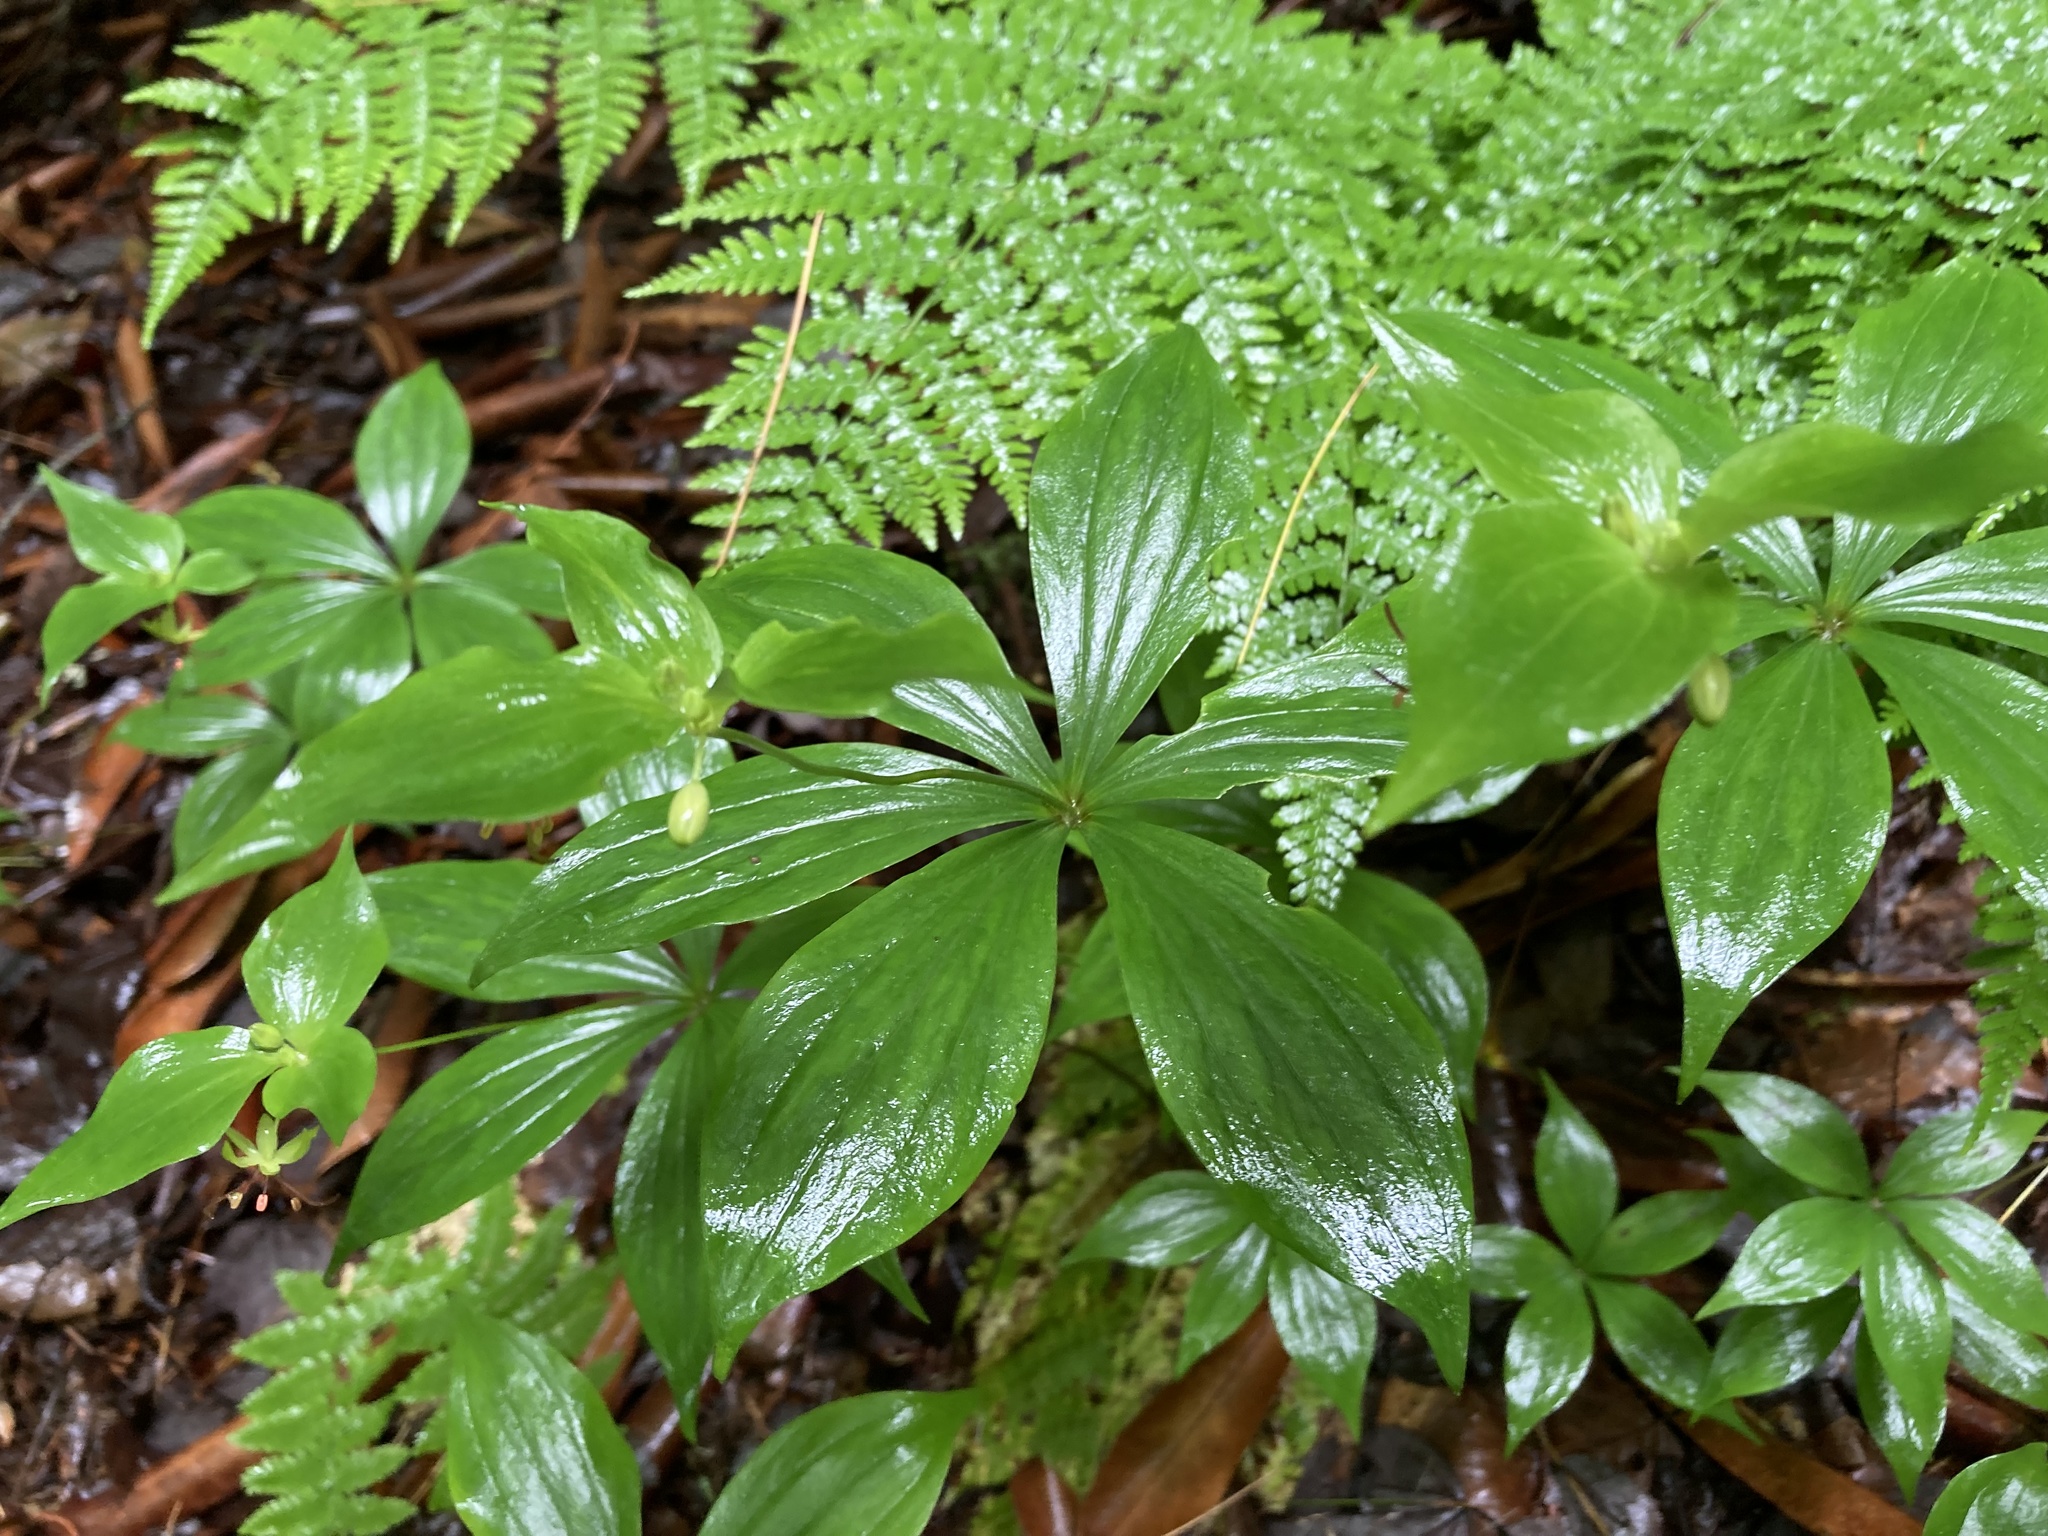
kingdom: Plantae
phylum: Tracheophyta
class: Liliopsida
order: Liliales
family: Liliaceae
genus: Medeola
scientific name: Medeola virginiana
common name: Indian cucumber-root
